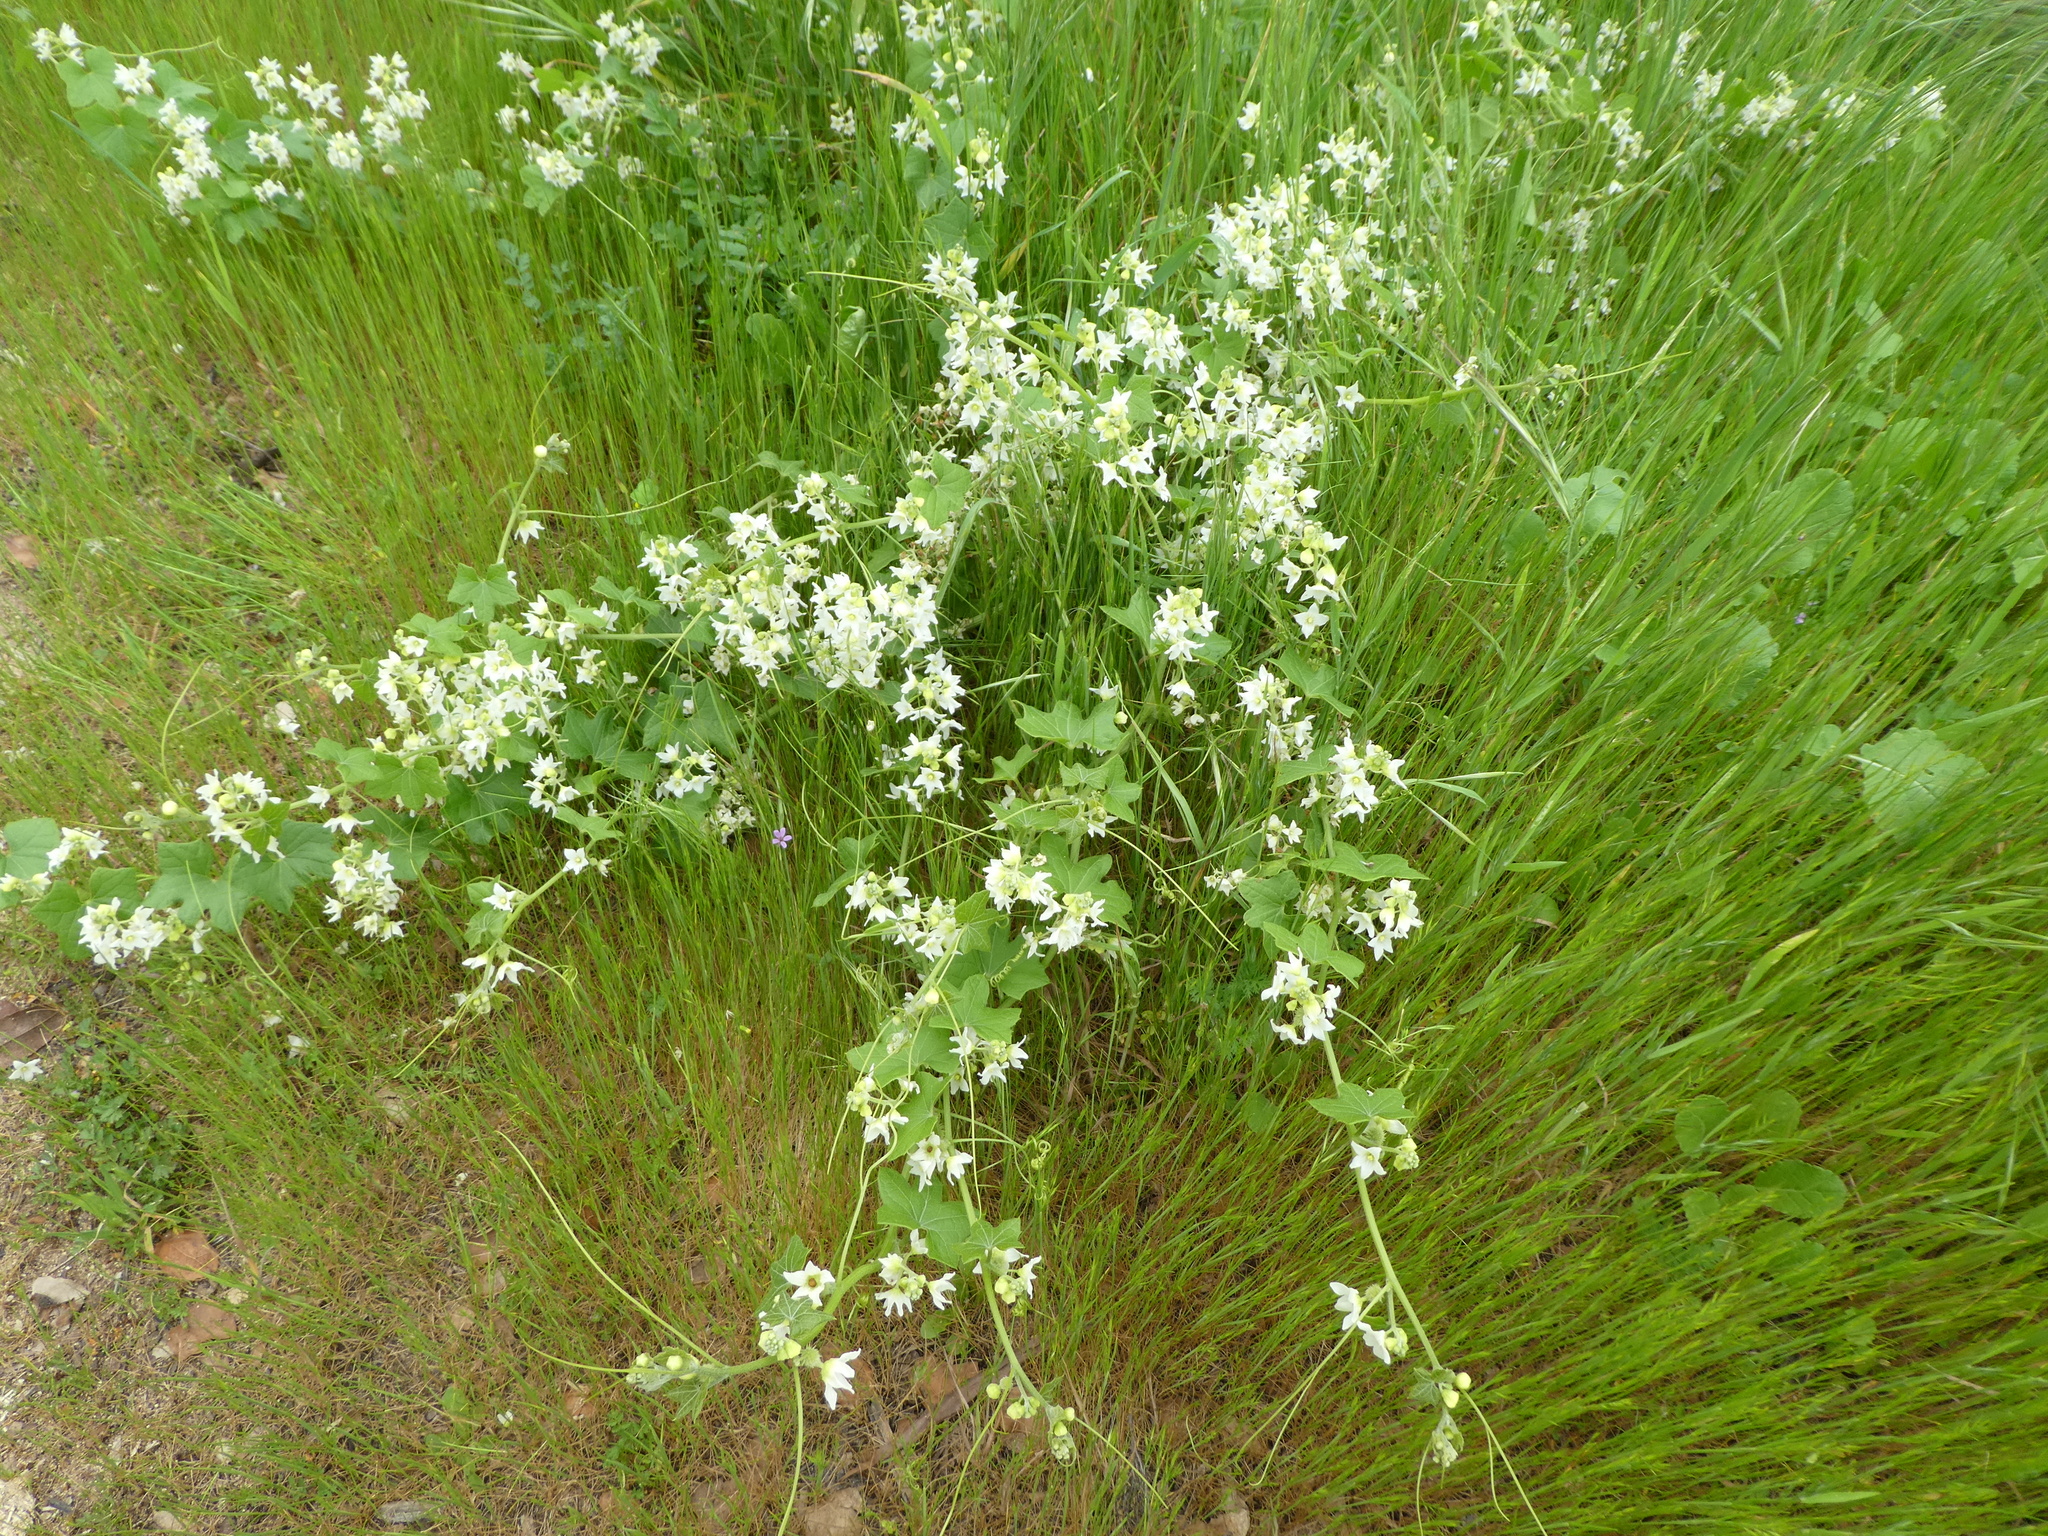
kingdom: Plantae
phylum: Tracheophyta
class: Magnoliopsida
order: Cucurbitales
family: Cucurbitaceae
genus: Marah
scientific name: Marah macrocarpa
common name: Cucamonga manroot
